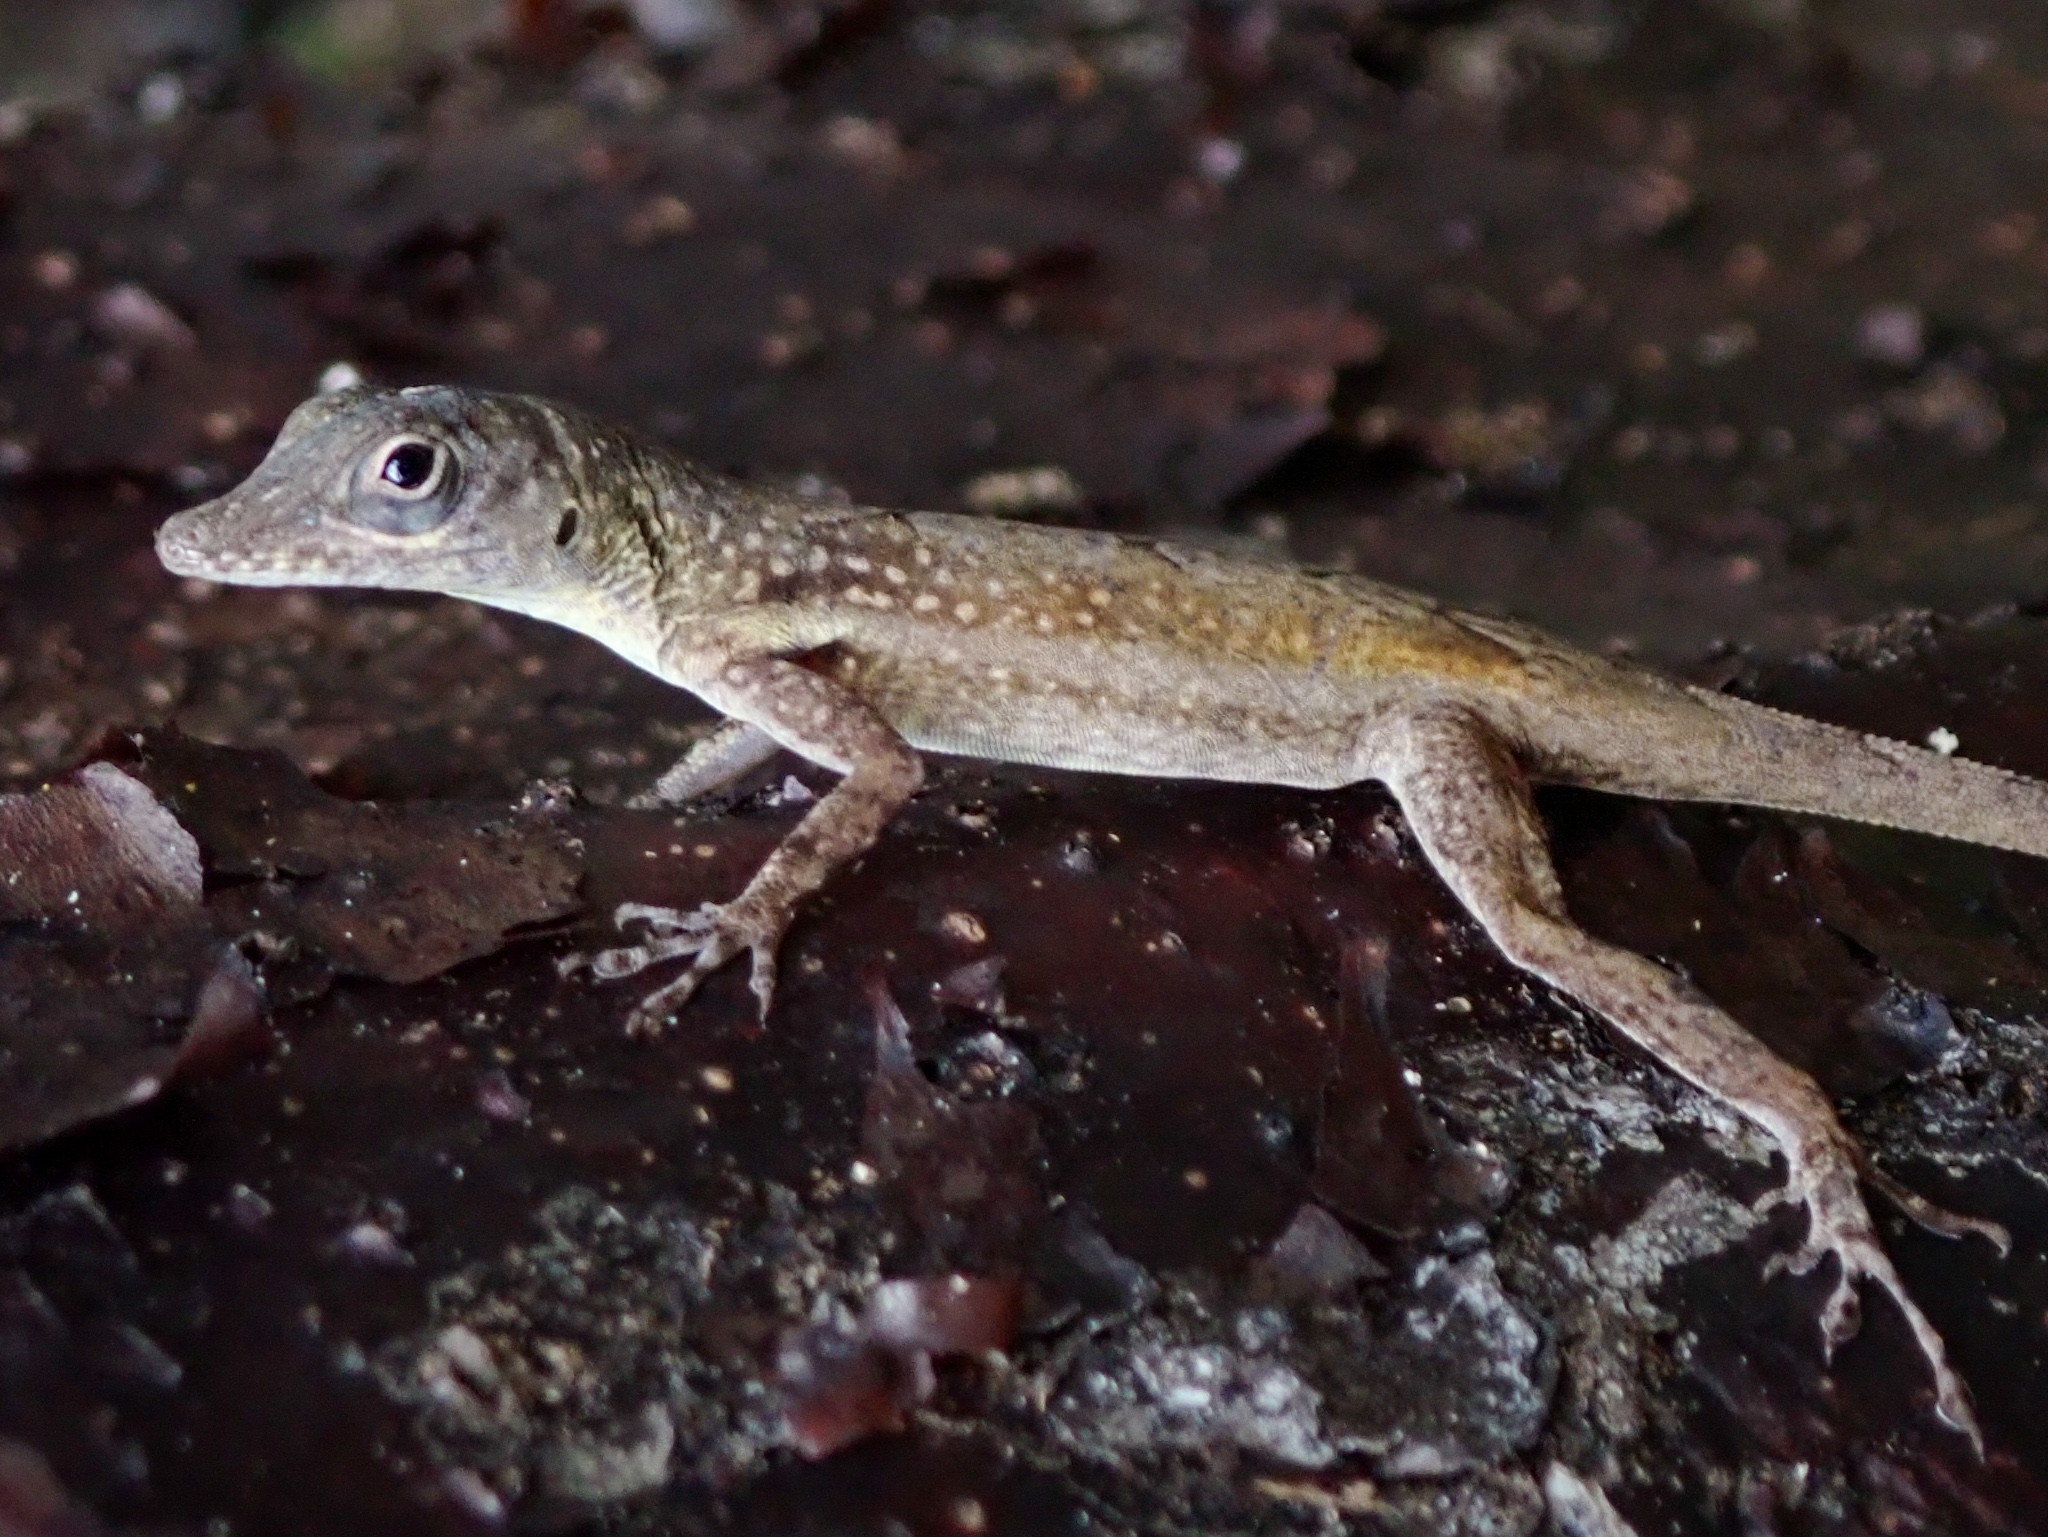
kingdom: Animalia
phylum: Chordata
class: Squamata
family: Dactyloidae
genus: Anolis
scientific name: Anolis conspersus
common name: Grand cayman anole
